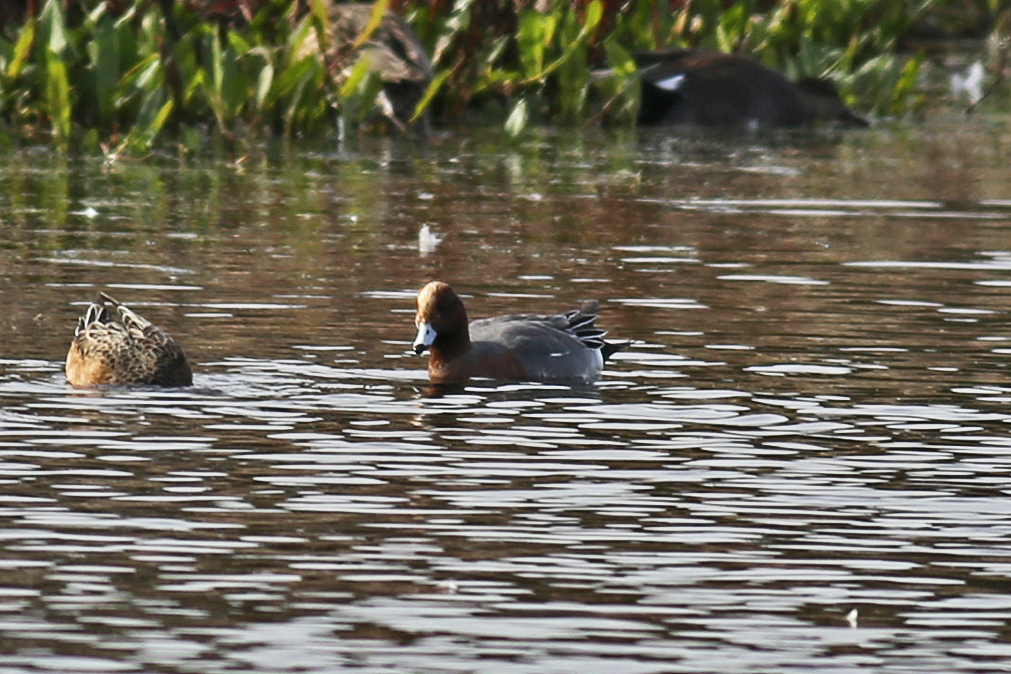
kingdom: Animalia
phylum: Chordata
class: Aves
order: Anseriformes
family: Anatidae
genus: Mareca
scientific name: Mareca penelope
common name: Eurasian wigeon
